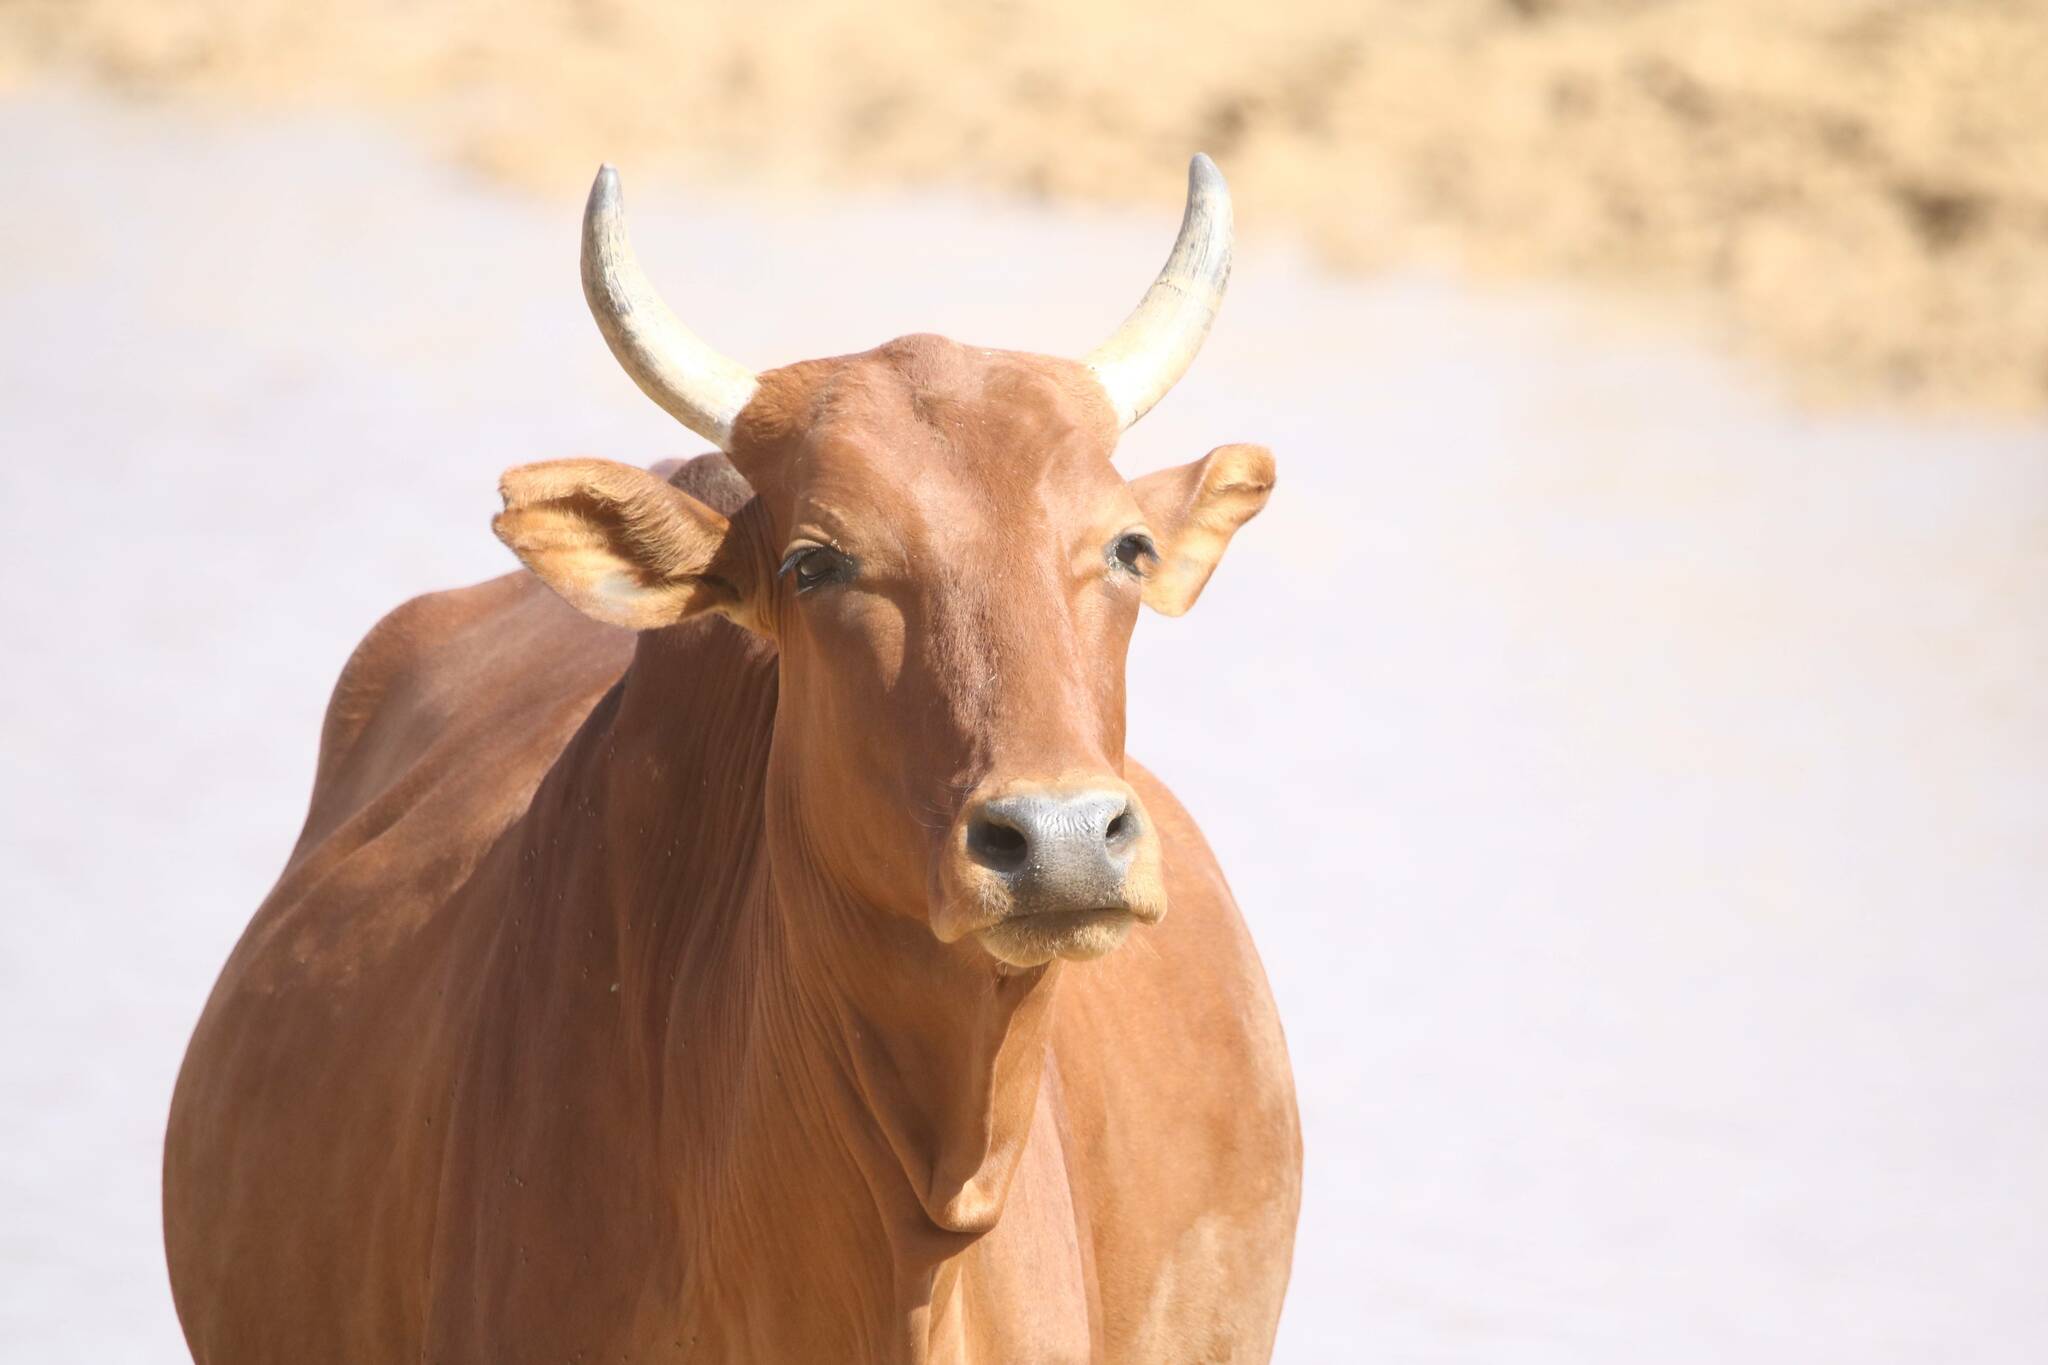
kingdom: Animalia
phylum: Chordata
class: Mammalia
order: Artiodactyla
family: Bovidae
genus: Bos
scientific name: Bos taurus
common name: Domesticated cattle
